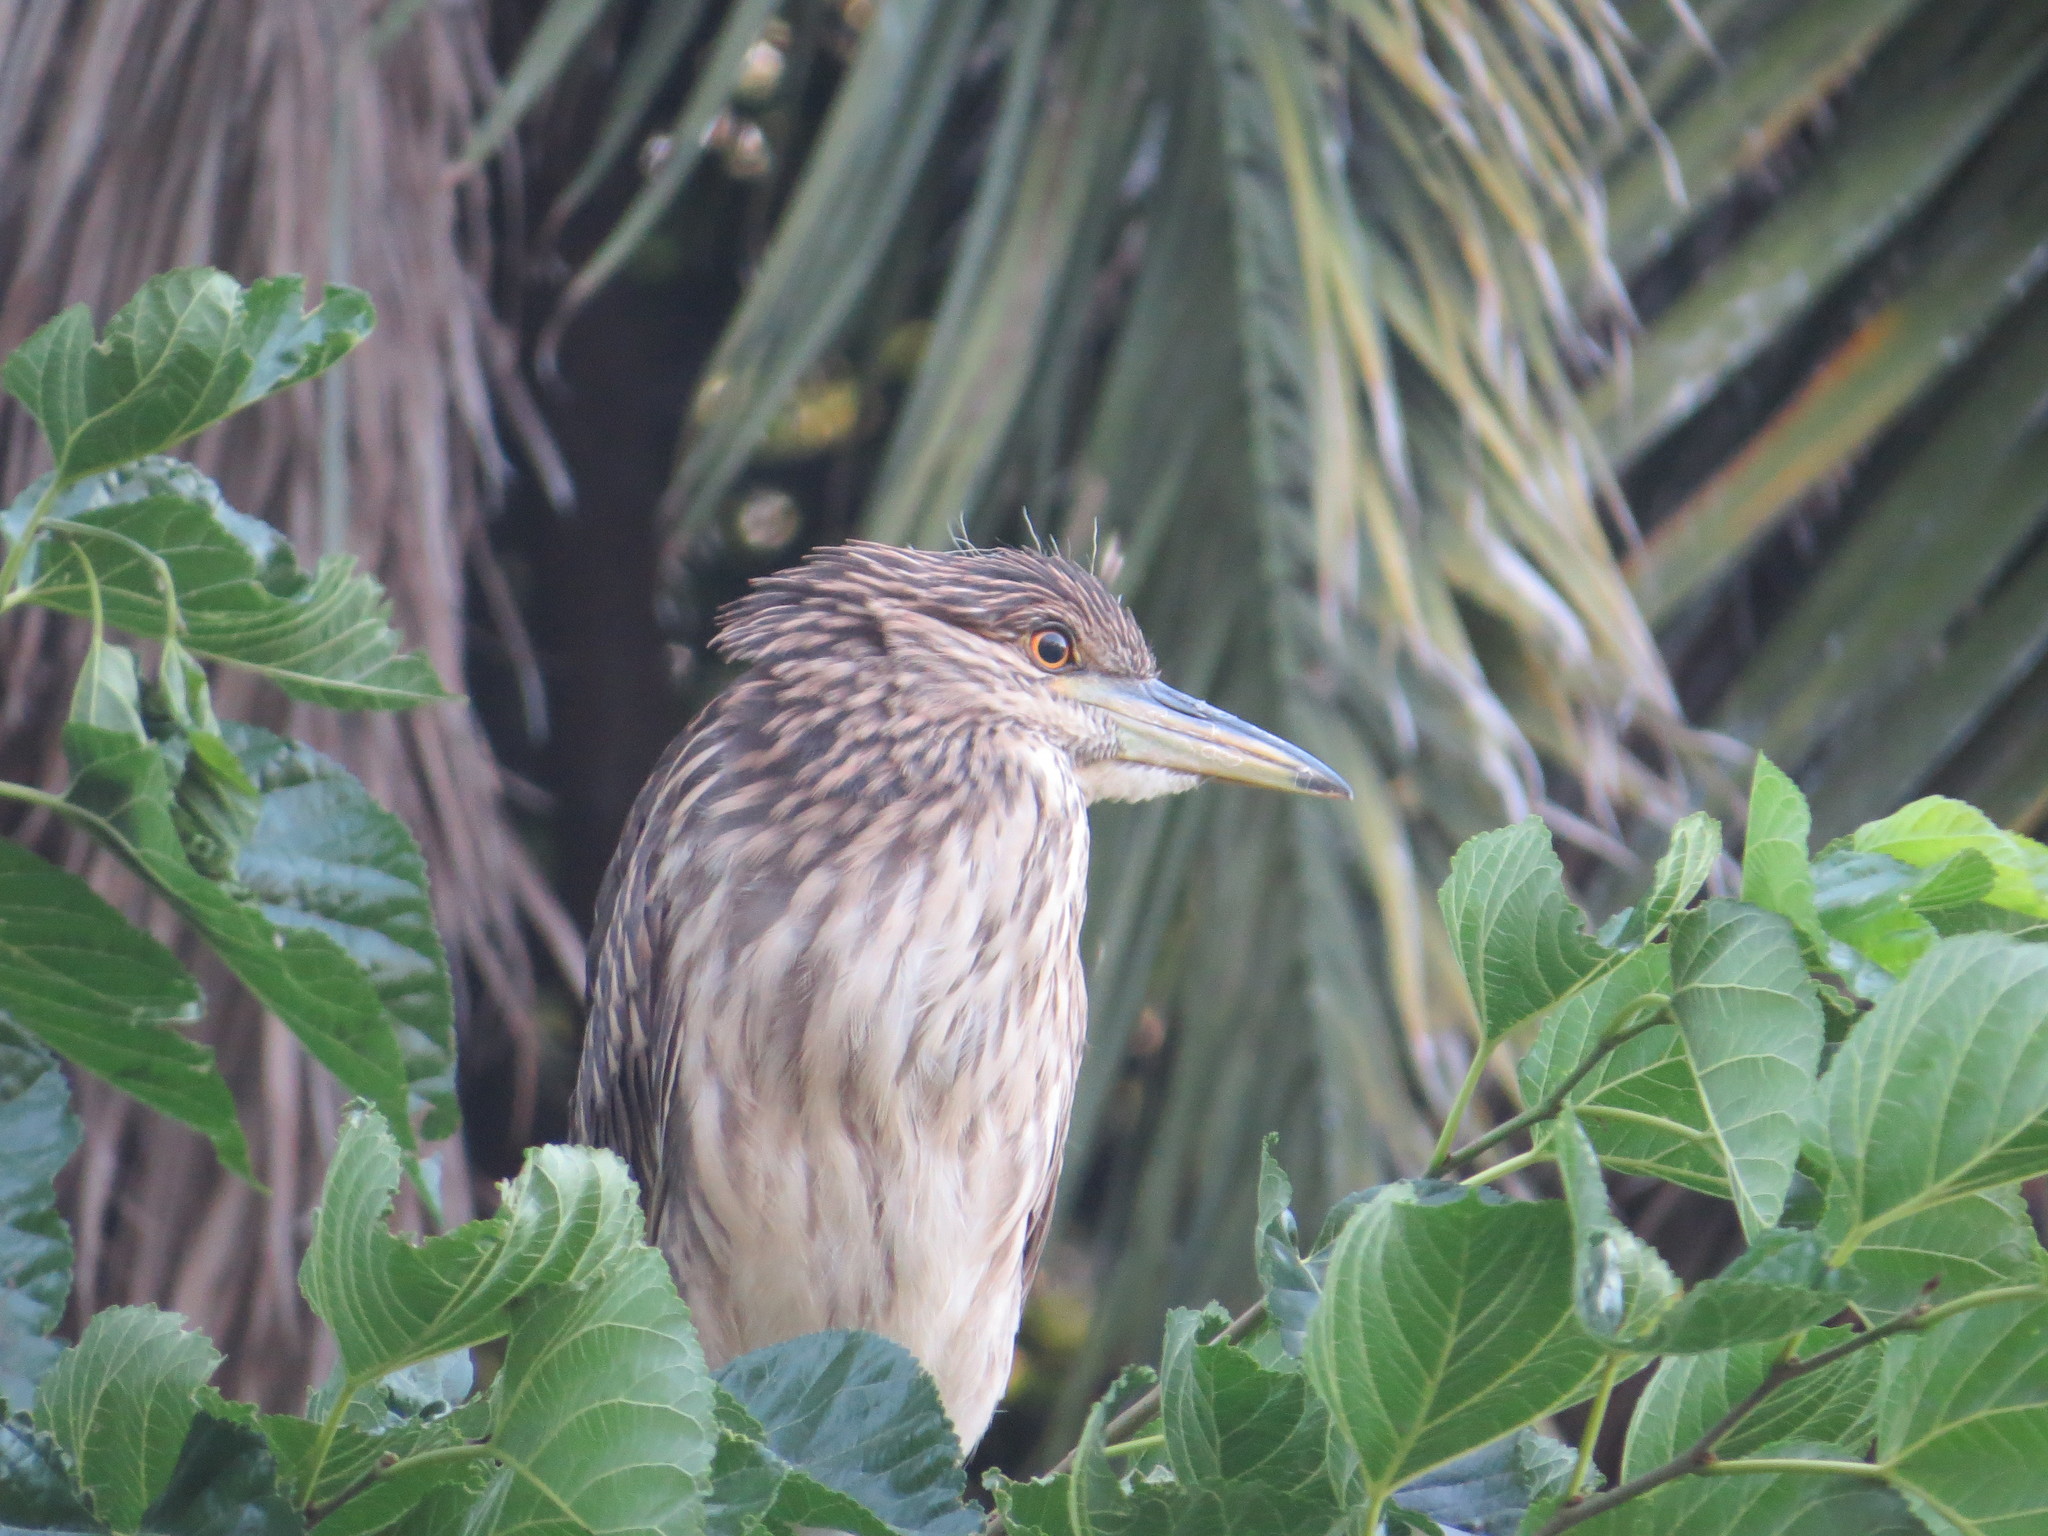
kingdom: Animalia
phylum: Chordata
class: Aves
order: Pelecaniformes
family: Ardeidae
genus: Nycticorax
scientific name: Nycticorax nycticorax
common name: Black-crowned night heron
